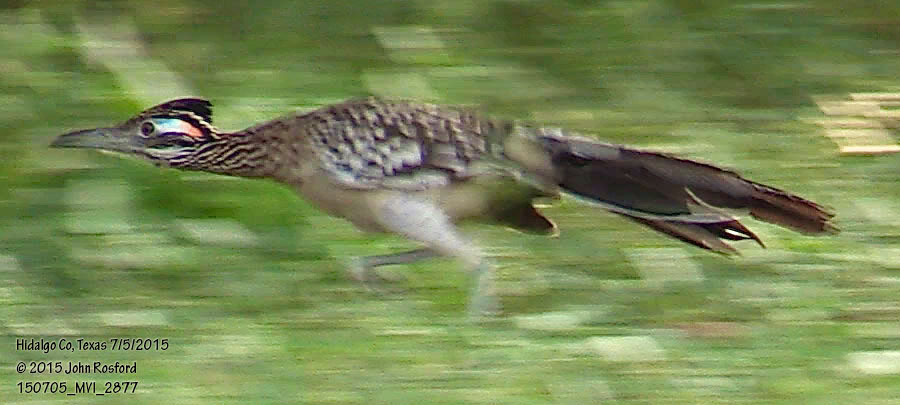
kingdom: Animalia
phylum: Chordata
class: Aves
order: Cuculiformes
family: Cuculidae
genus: Geococcyx
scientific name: Geococcyx californianus
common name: Greater roadrunner
